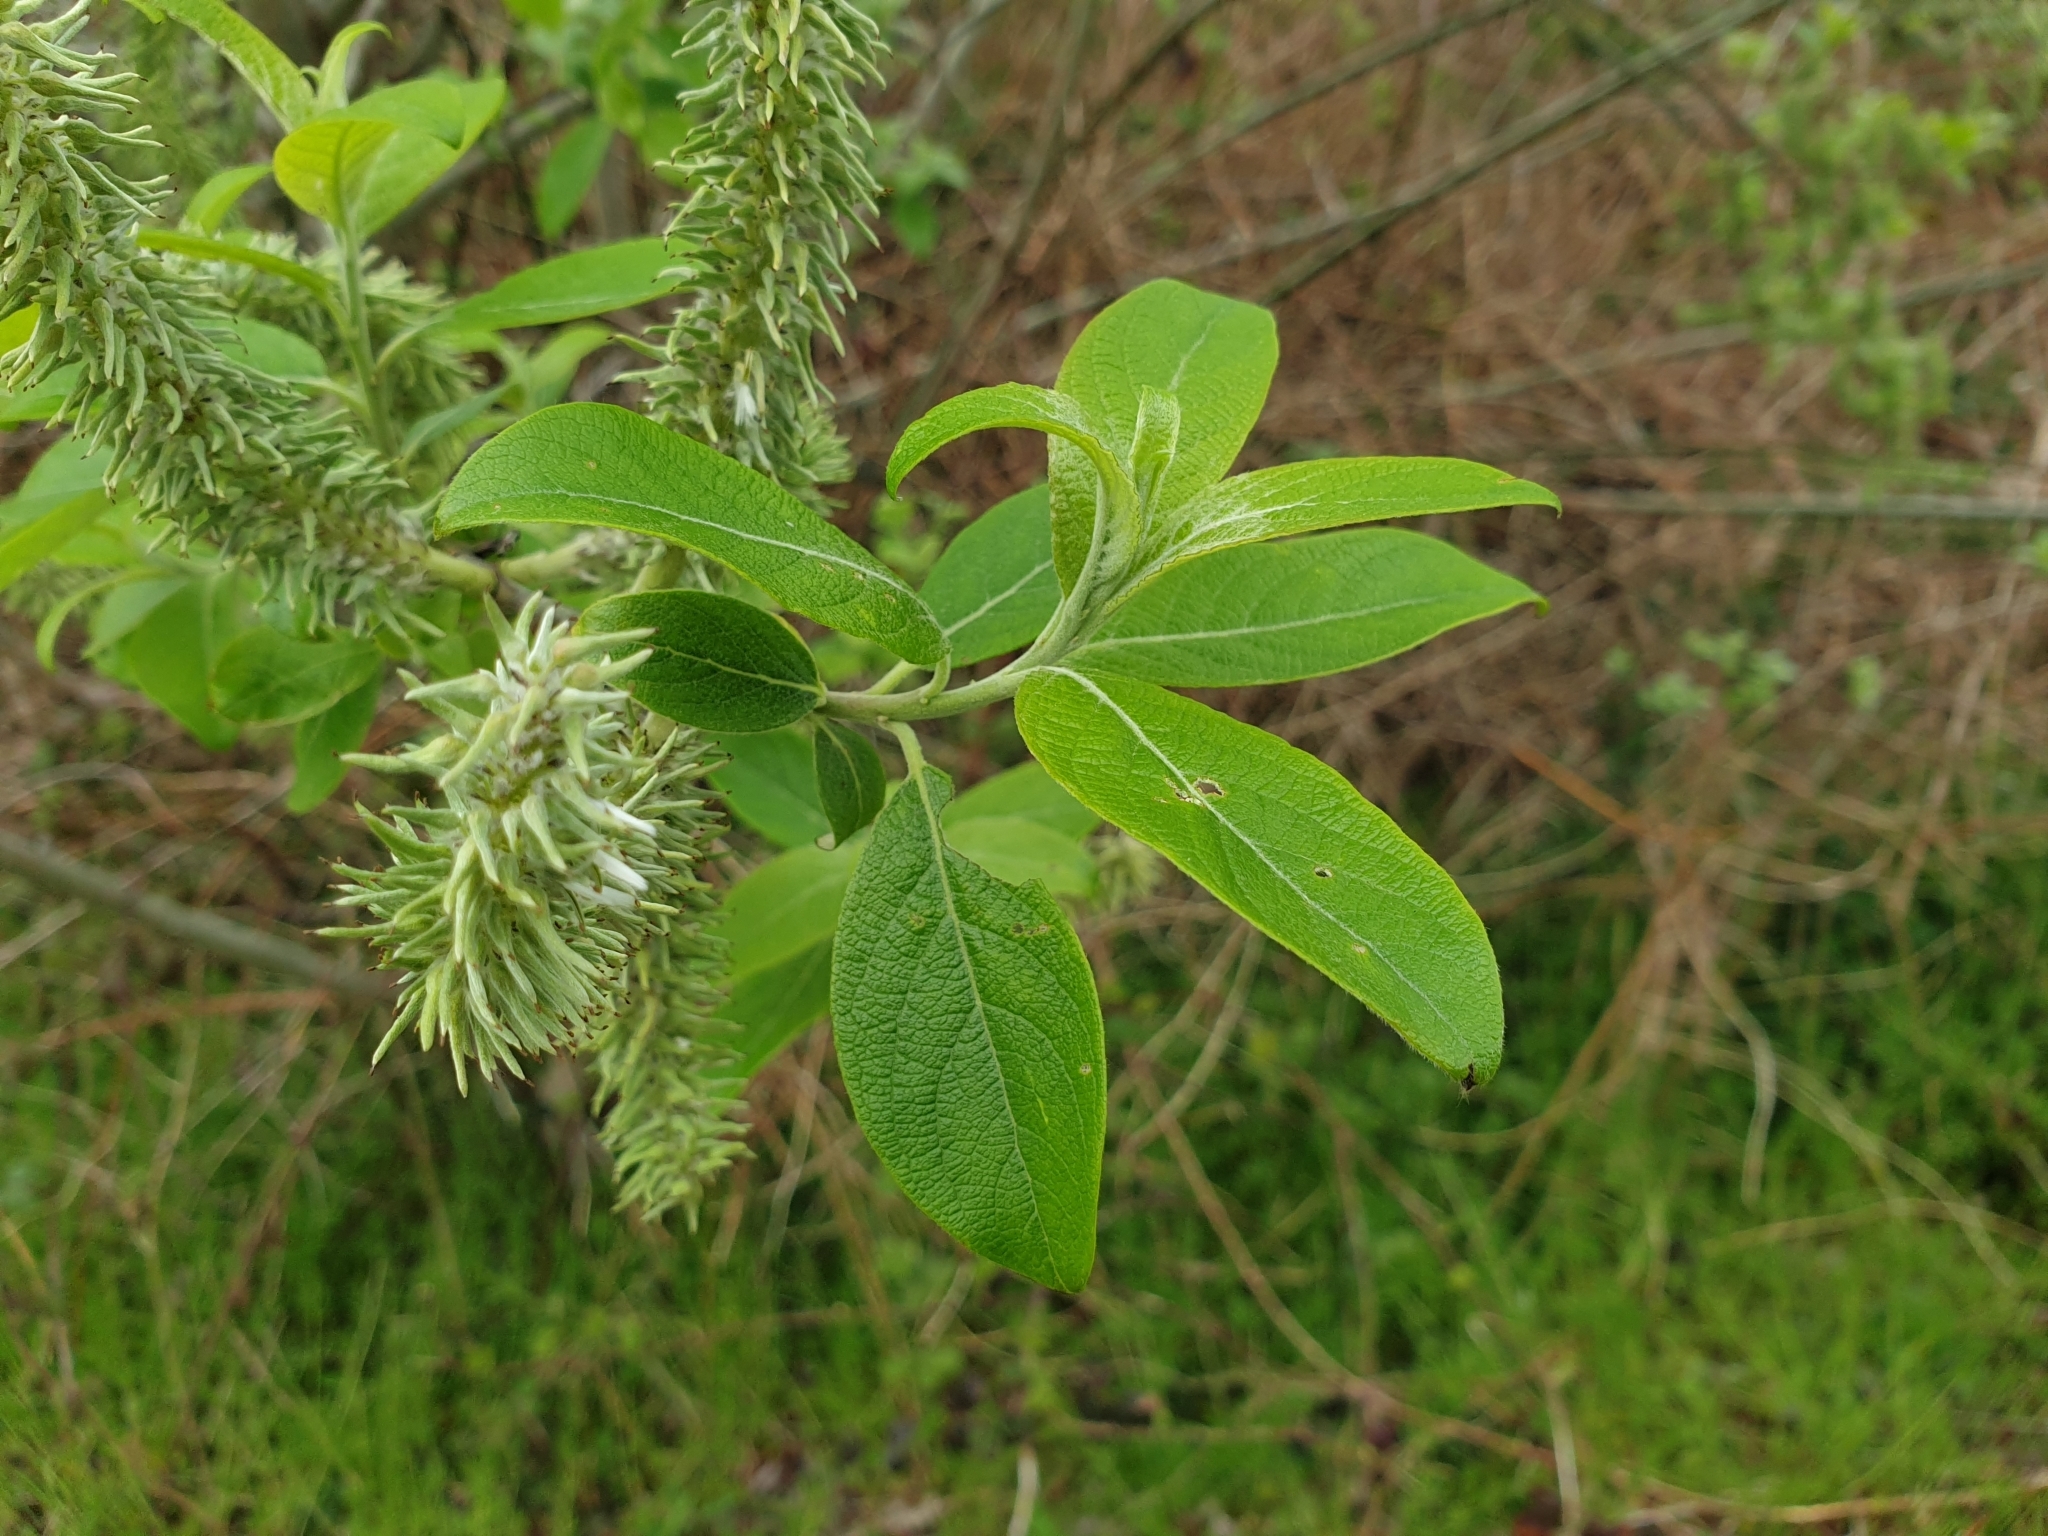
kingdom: Plantae
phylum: Tracheophyta
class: Magnoliopsida
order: Malpighiales
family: Salicaceae
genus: Salix
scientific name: Salix caprea
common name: Goat willow
